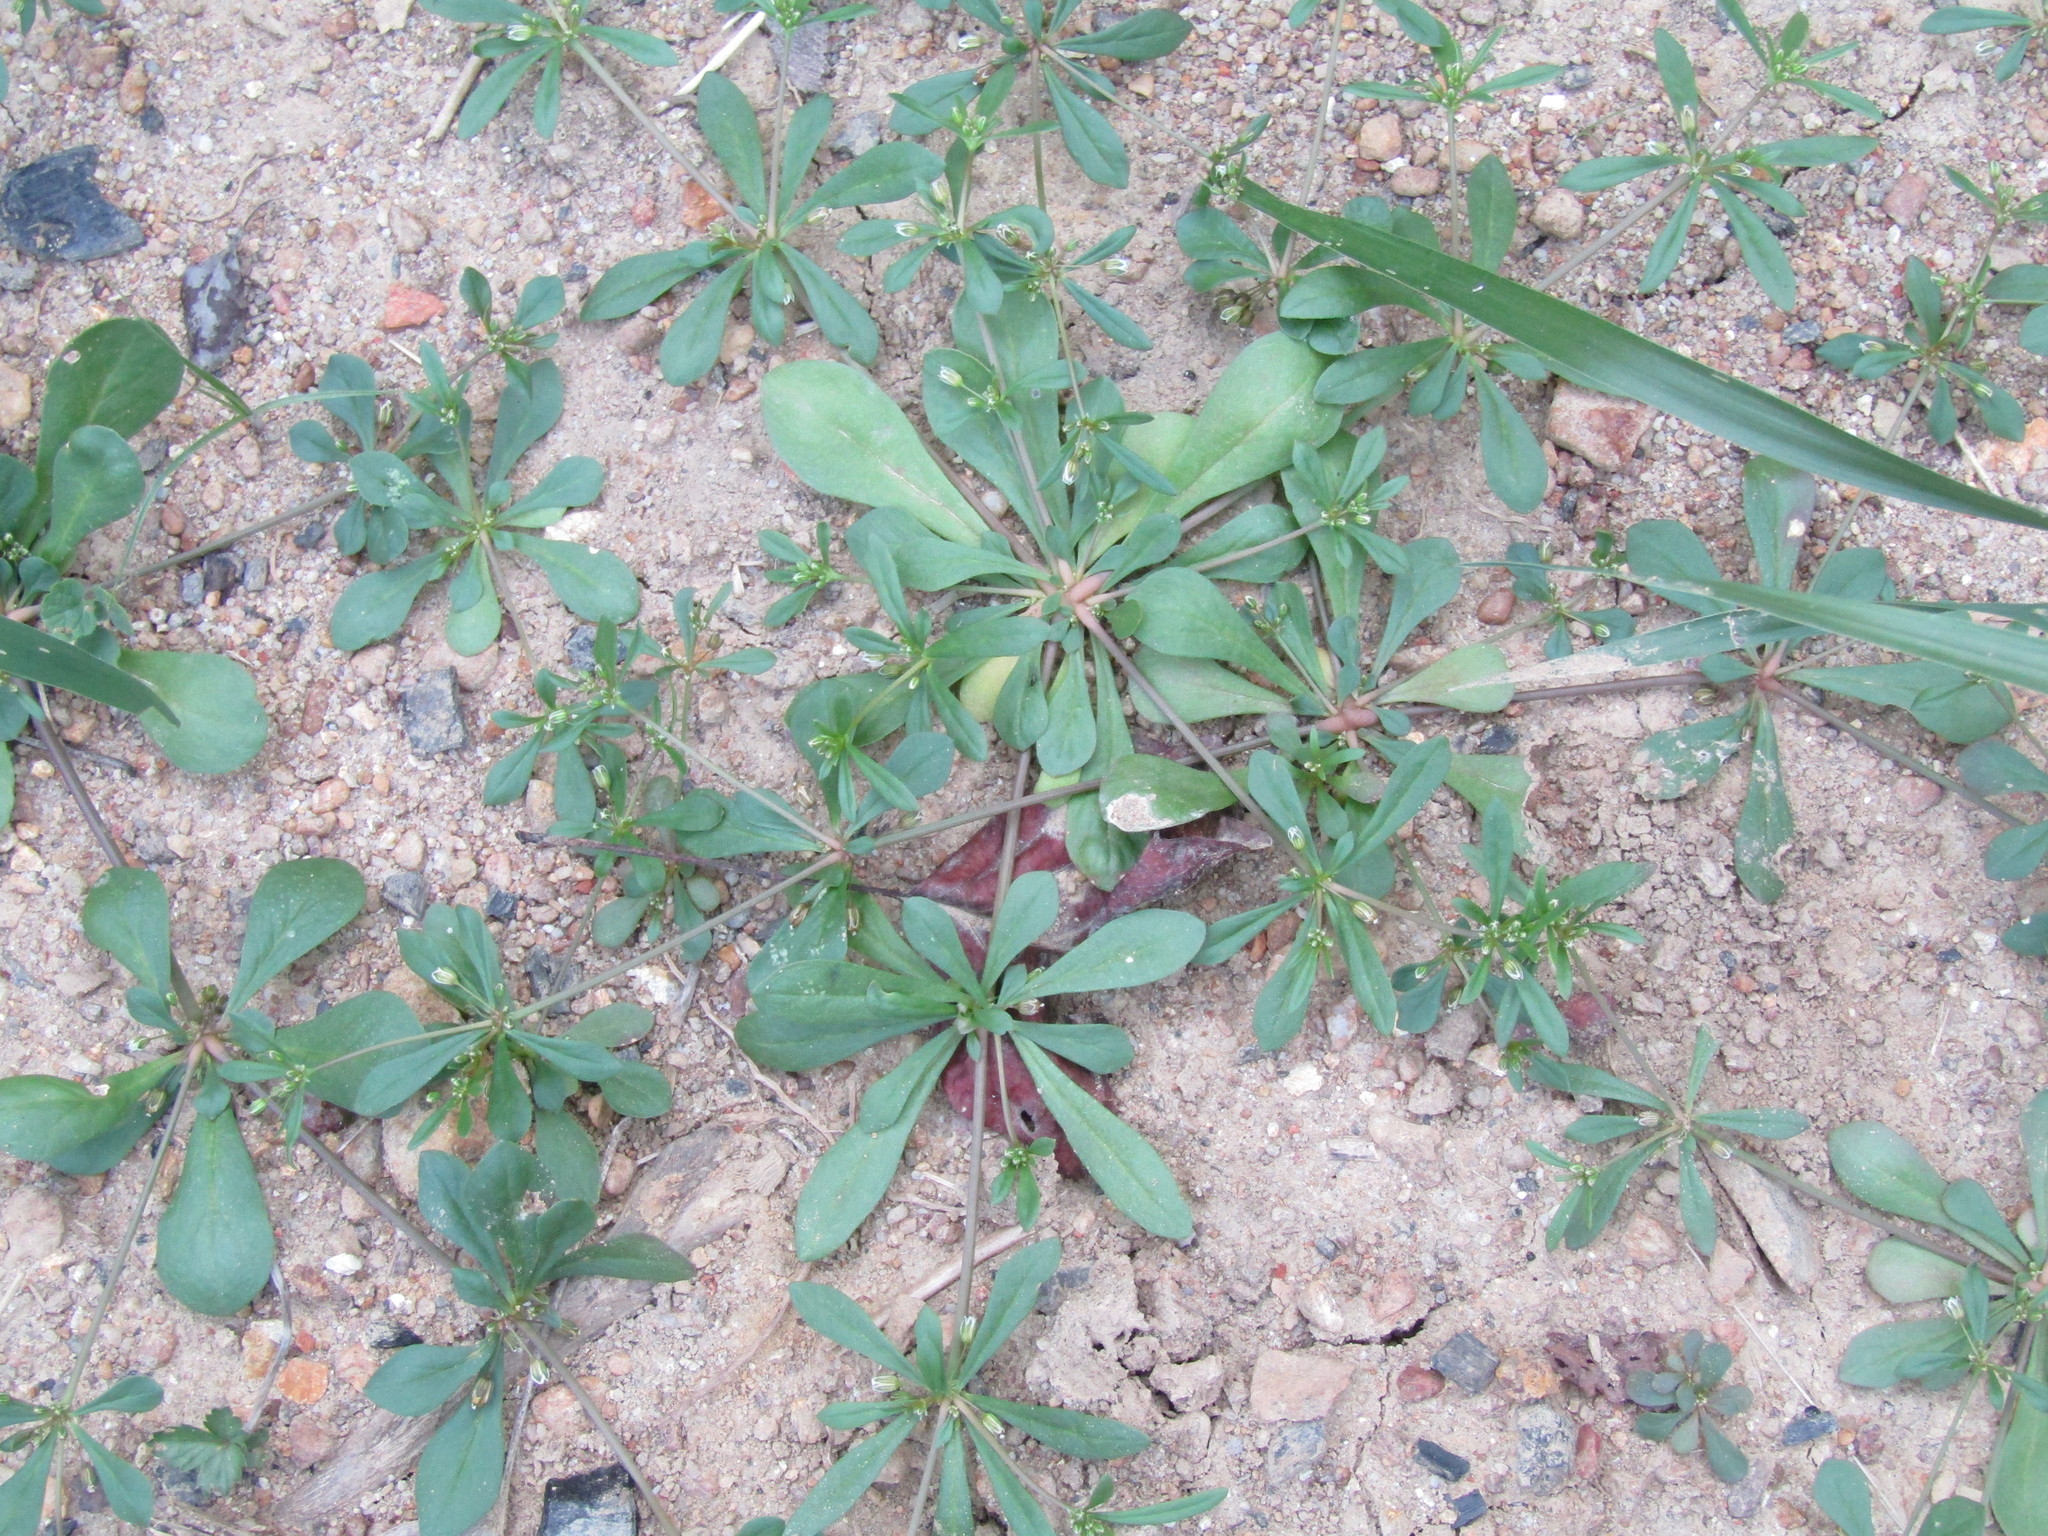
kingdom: Plantae
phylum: Tracheophyta
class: Magnoliopsida
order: Caryophyllales
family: Molluginaceae
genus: Mollugo
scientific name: Mollugo verticillata
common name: Green carpetweed
